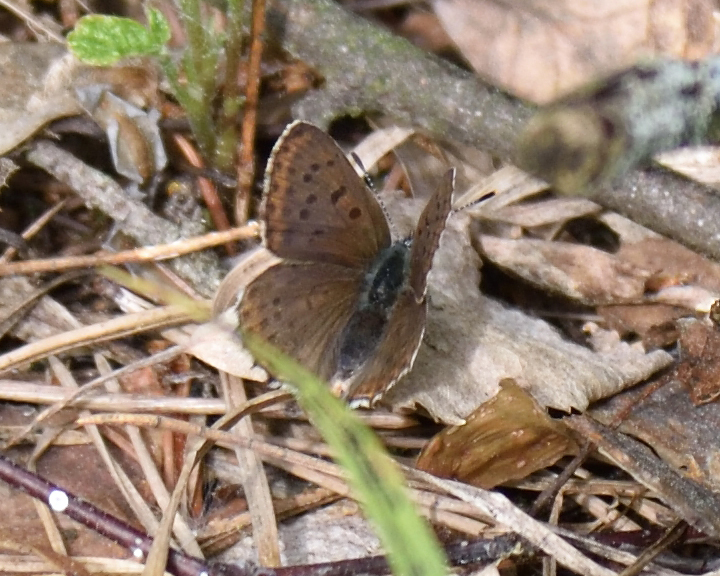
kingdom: Animalia
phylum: Arthropoda
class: Insecta
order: Lepidoptera
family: Lycaenidae
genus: Loweia
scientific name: Loweia tityrus
